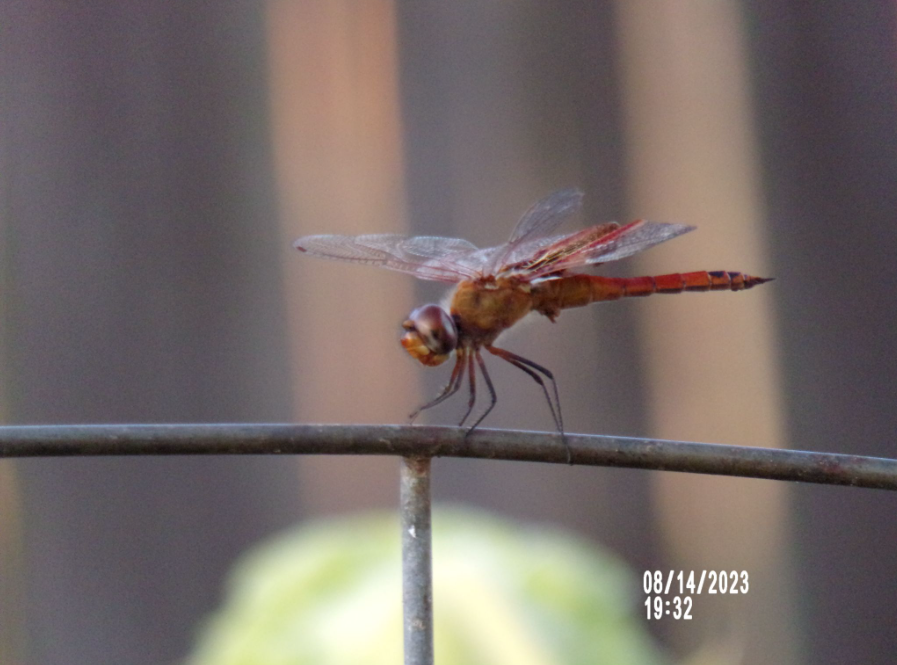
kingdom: Animalia
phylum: Arthropoda
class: Insecta
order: Odonata
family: Libellulidae
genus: Tramea
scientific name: Tramea onusta
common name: Red saddlebags
